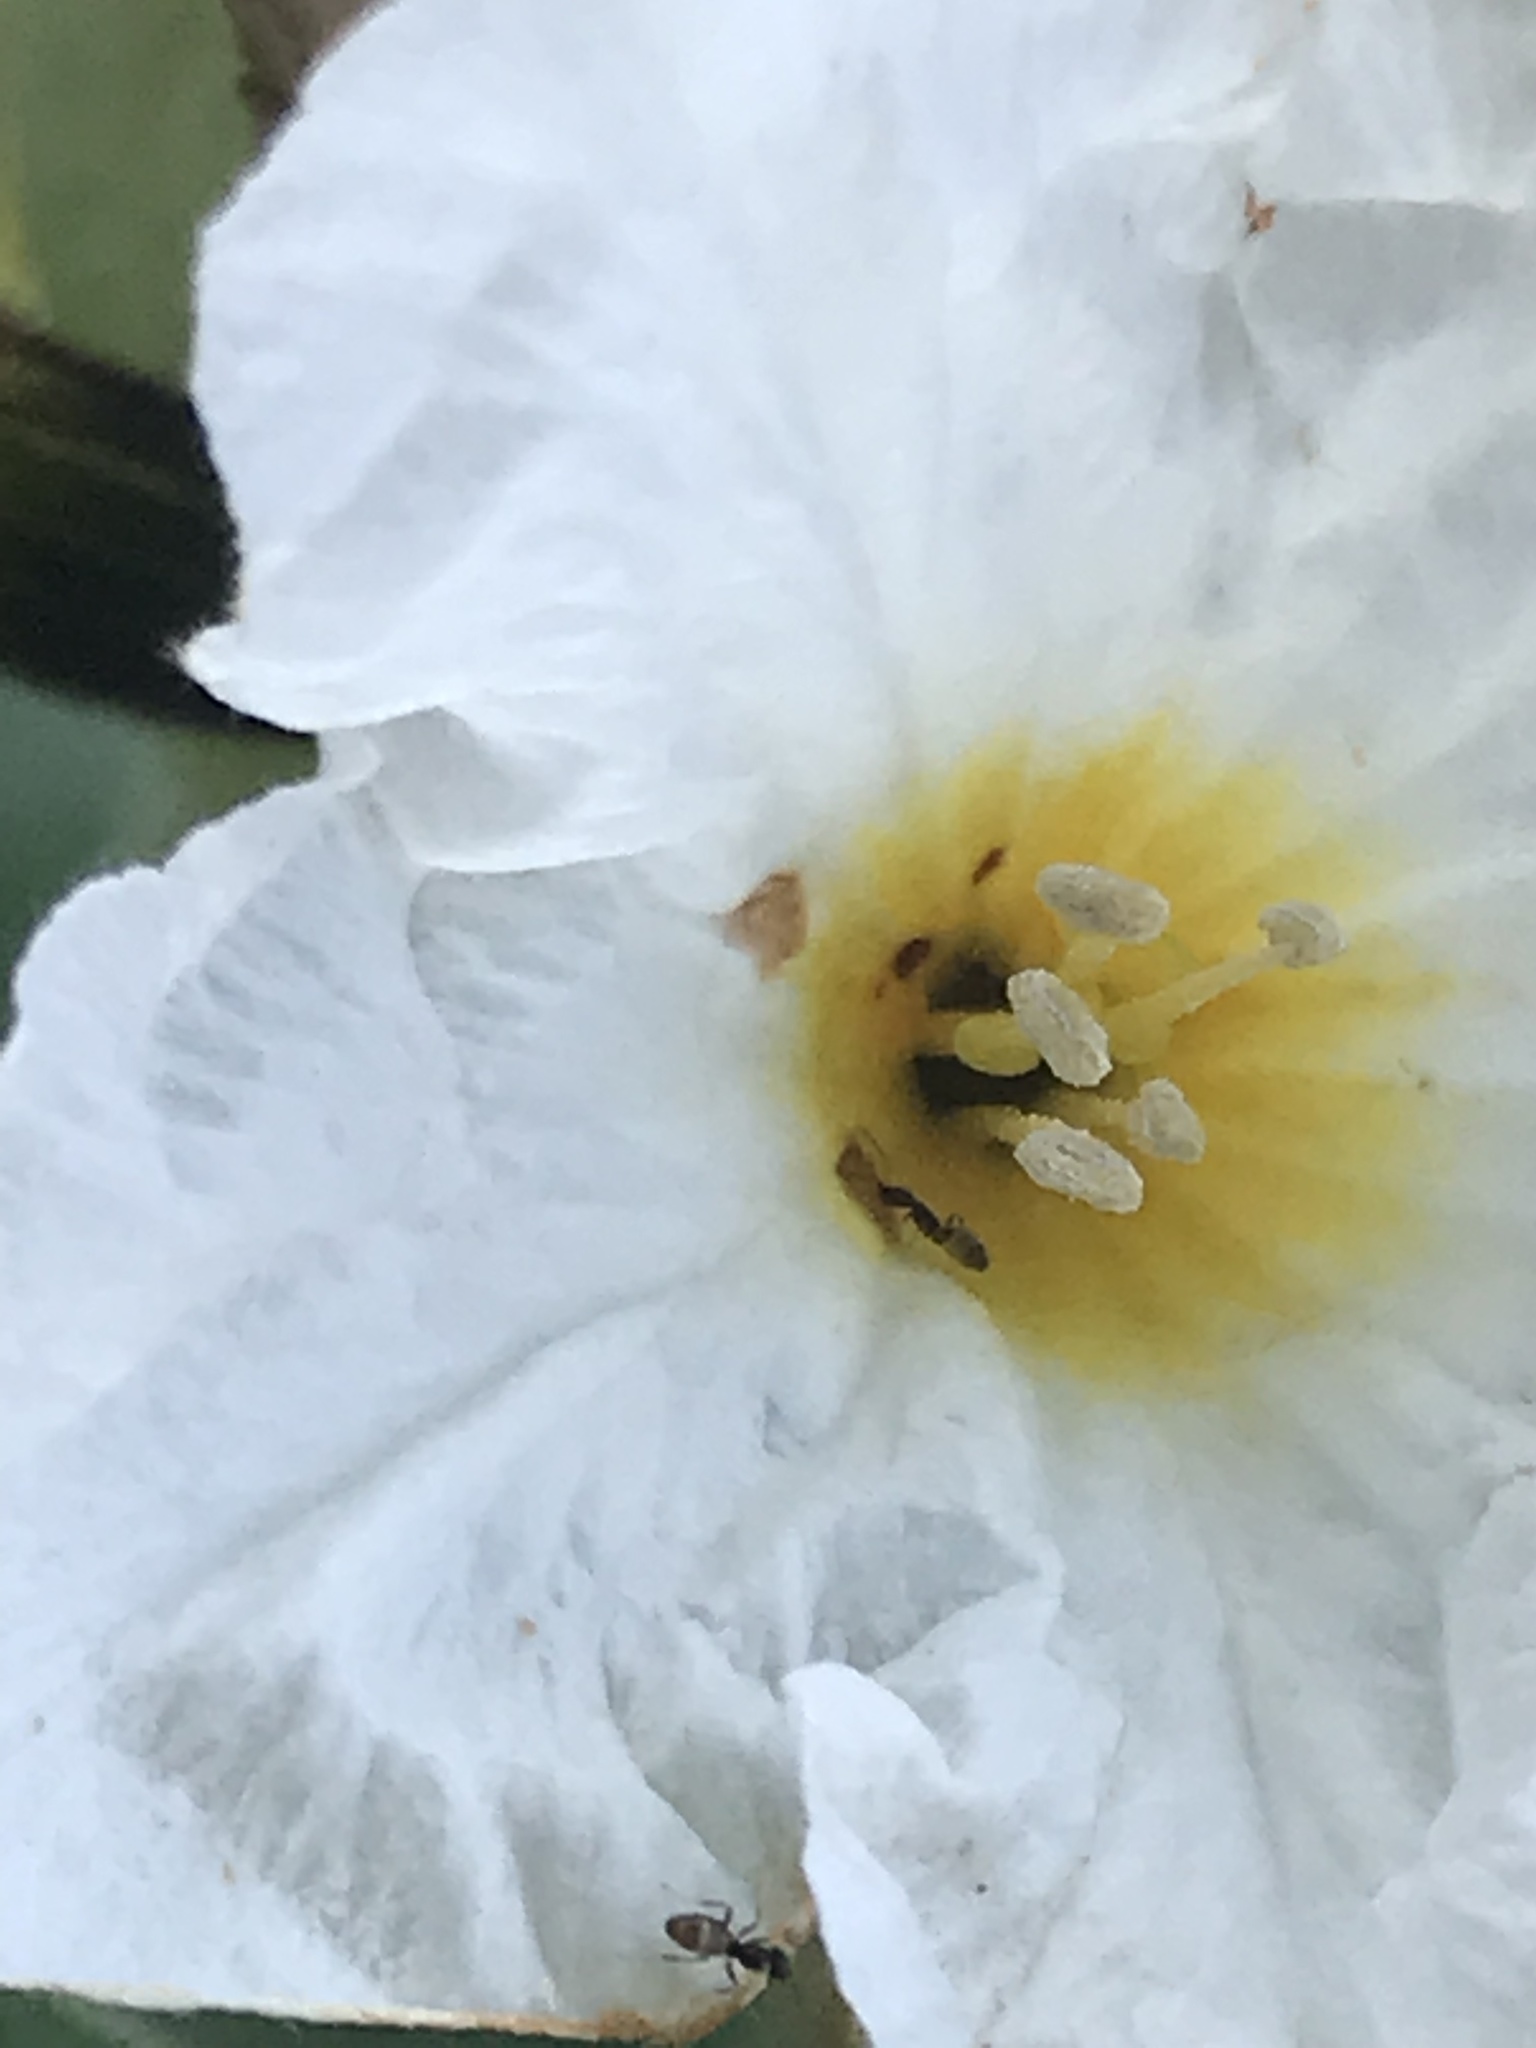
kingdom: Plantae
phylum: Tracheophyta
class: Magnoliopsida
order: Boraginales
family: Cordiaceae
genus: Cordia
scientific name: Cordia boissieri
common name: Mexican-olive
